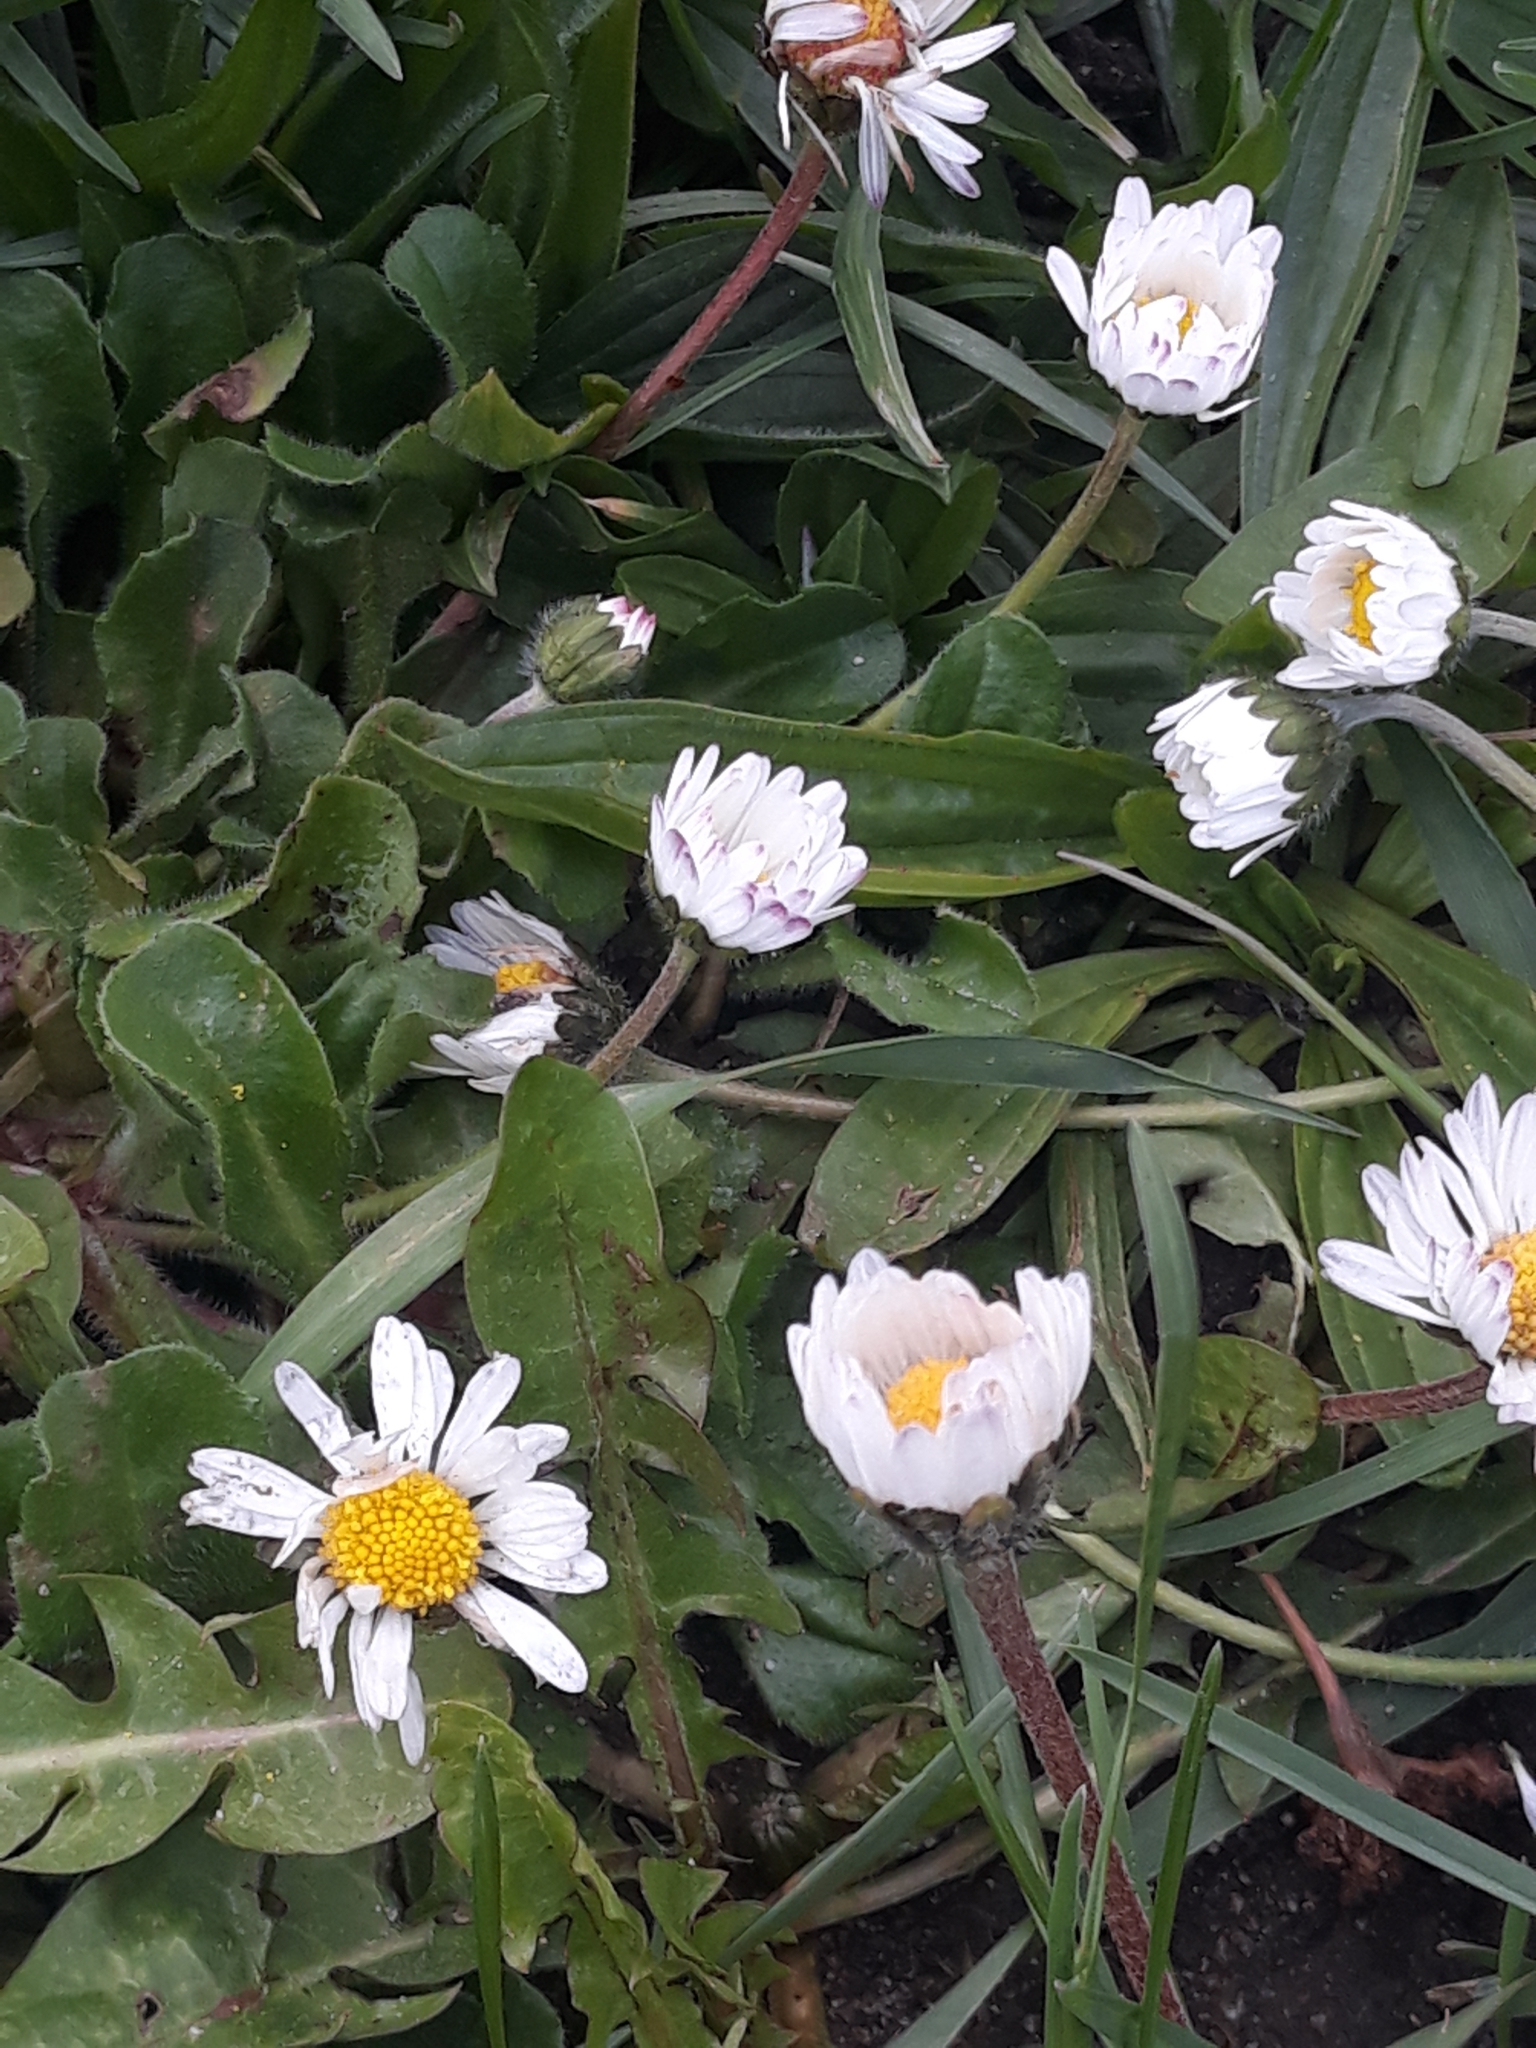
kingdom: Plantae
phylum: Tracheophyta
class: Magnoliopsida
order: Asterales
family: Asteraceae
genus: Bellis
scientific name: Bellis perennis
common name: Lawndaisy
